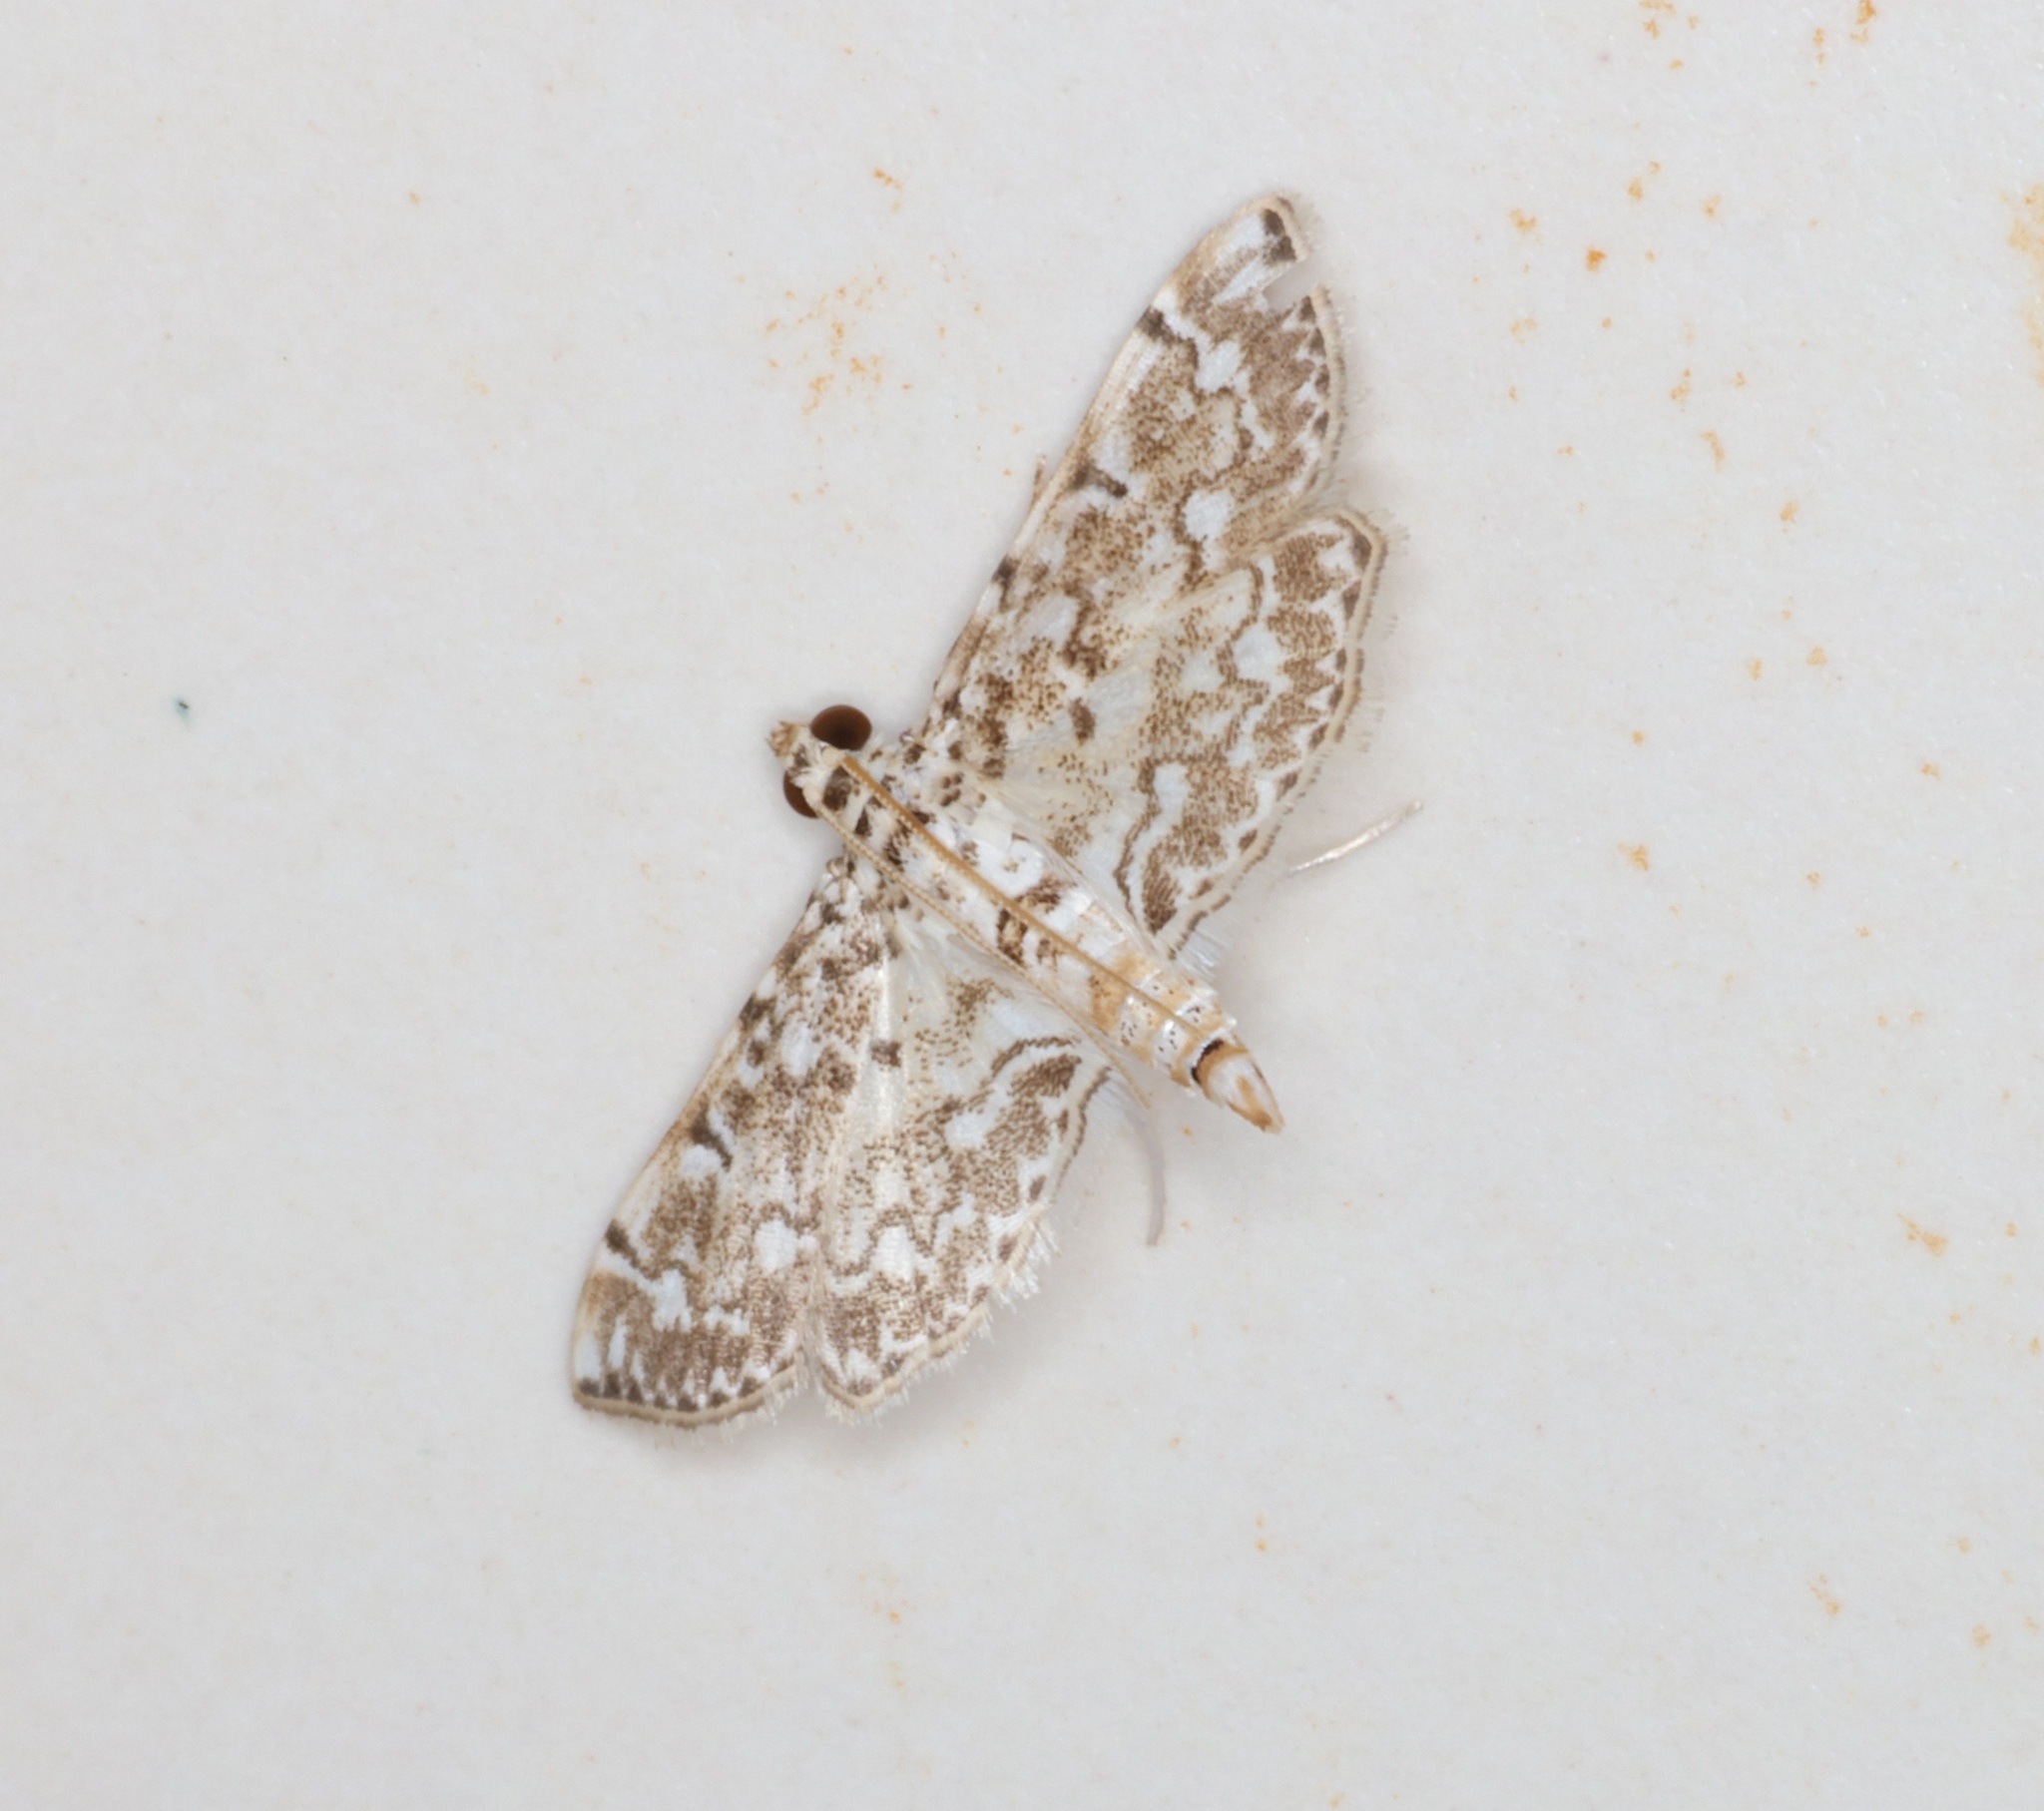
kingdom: Animalia
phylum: Arthropoda
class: Insecta
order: Lepidoptera
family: Crambidae
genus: Metoeca
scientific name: Metoeca foedalis
